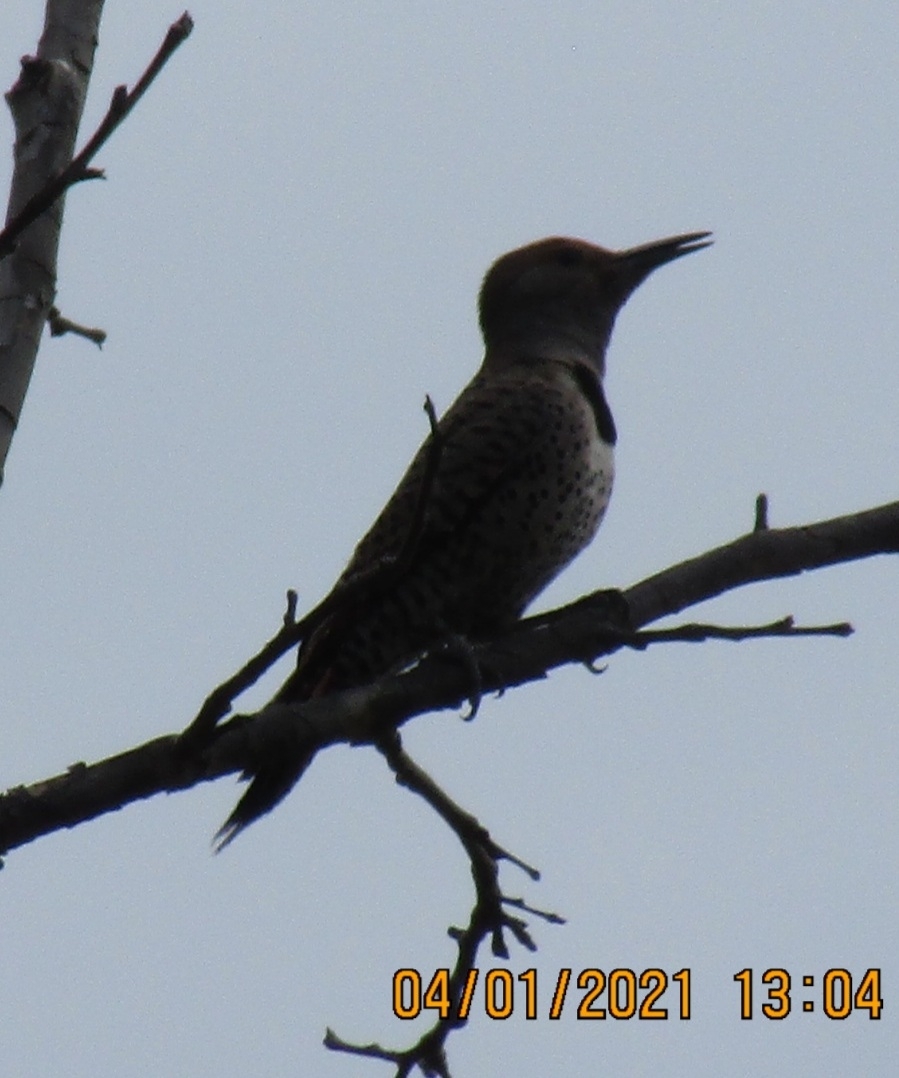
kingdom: Animalia
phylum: Chordata
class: Aves
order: Piciformes
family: Picidae
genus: Colaptes
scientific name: Colaptes auratus
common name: Northern flicker
